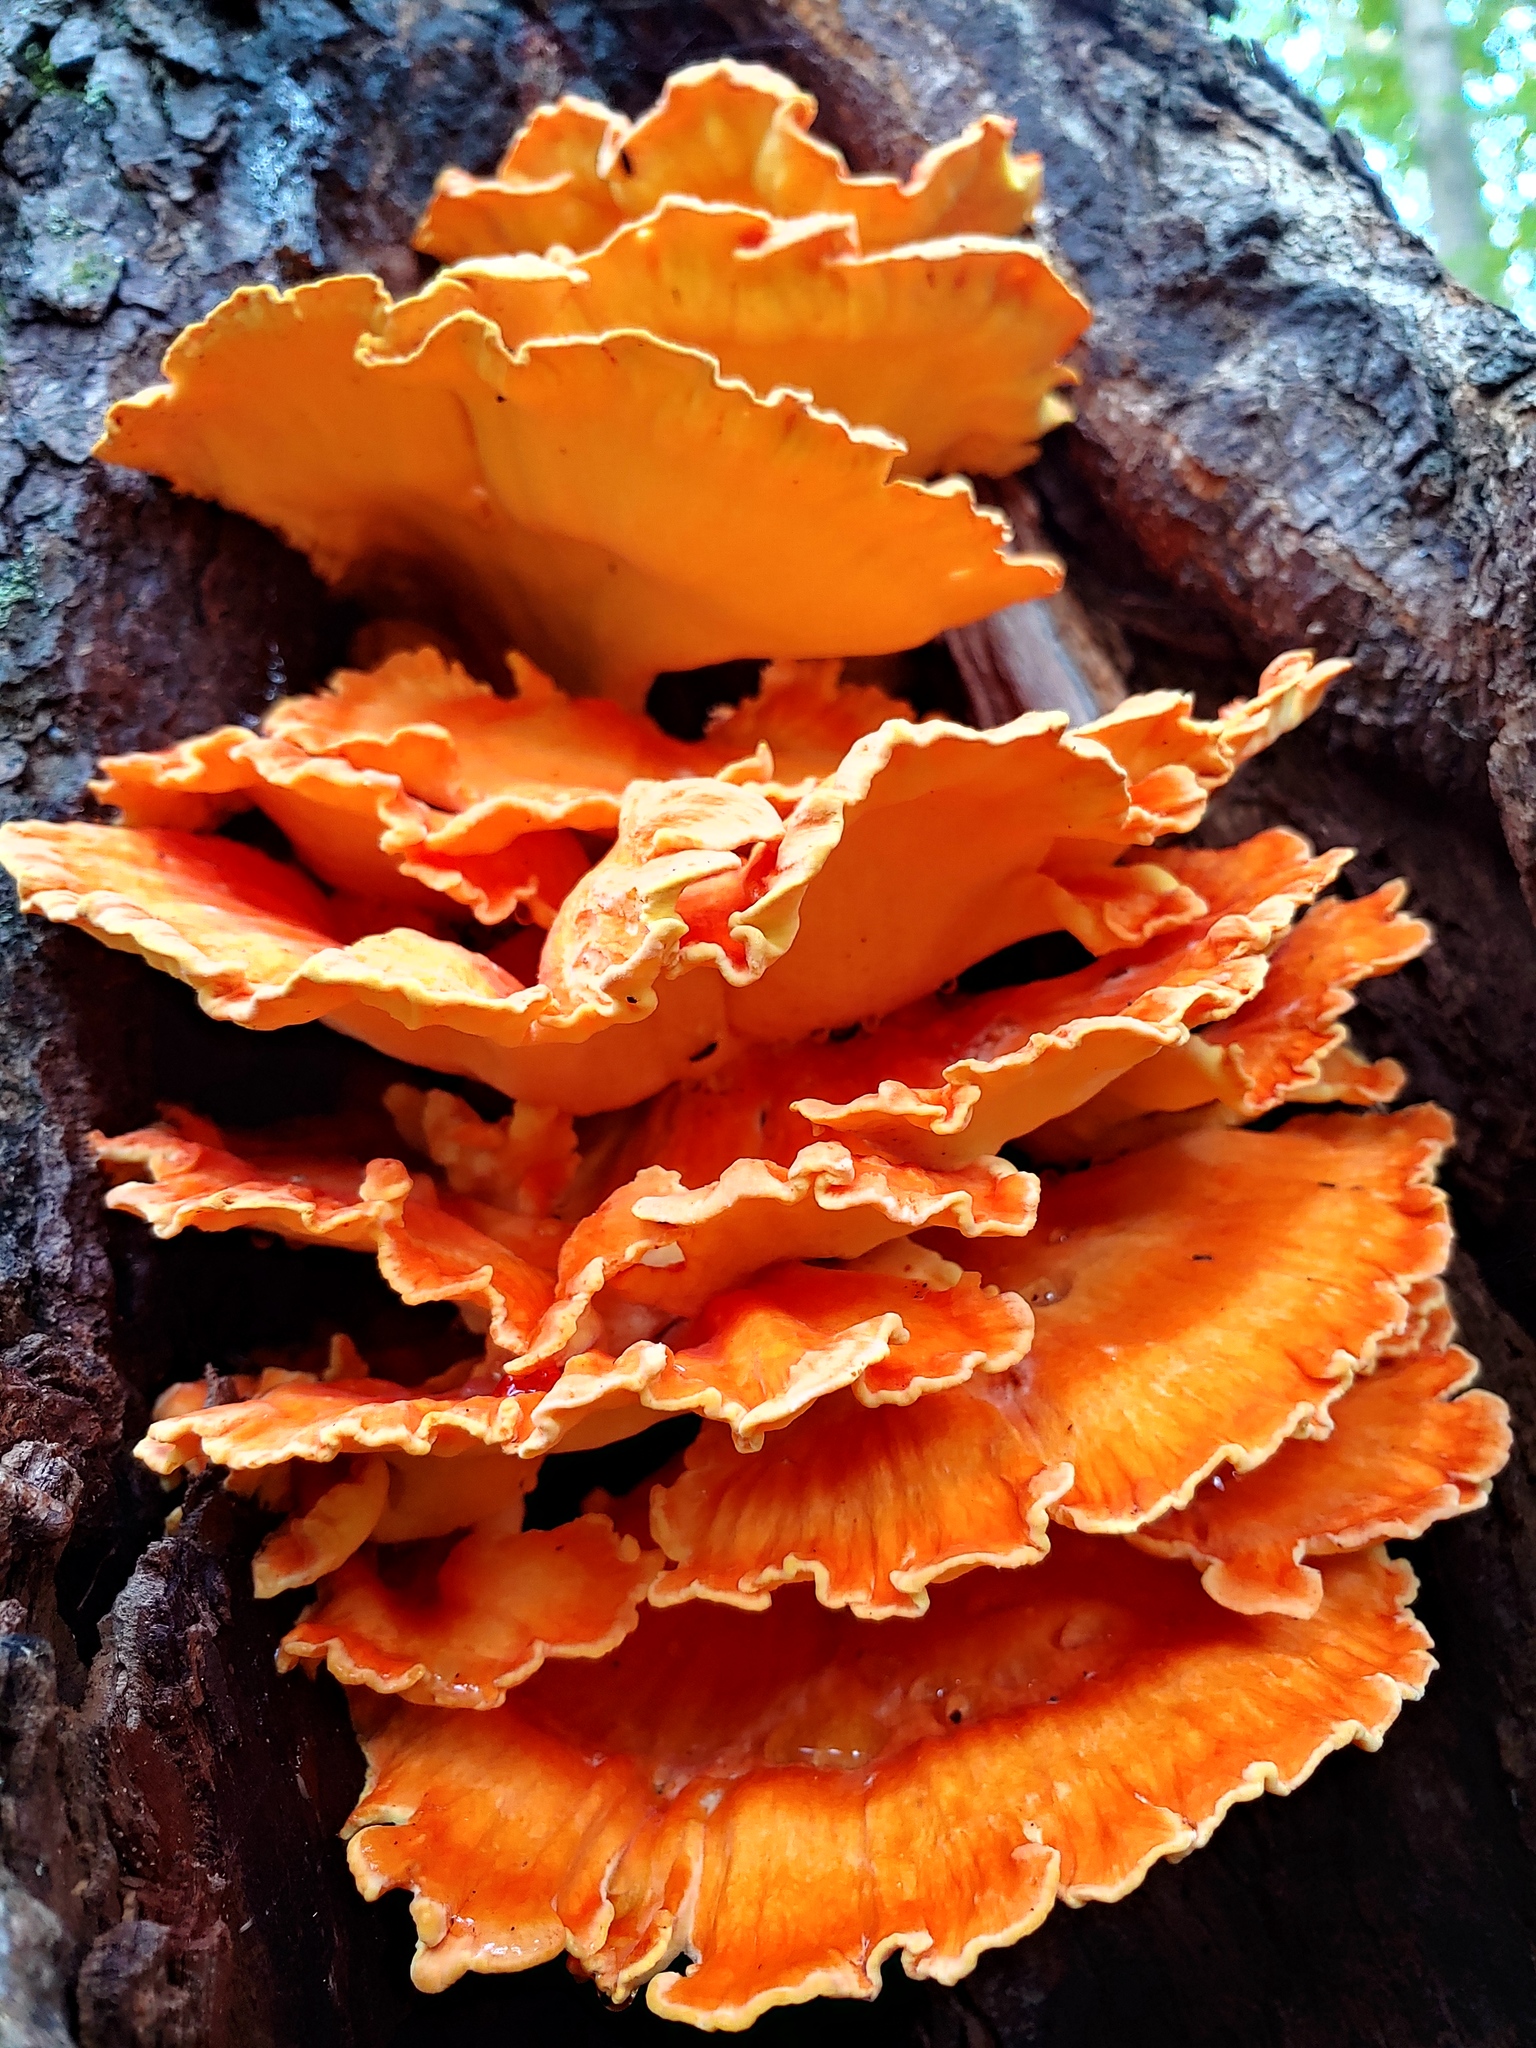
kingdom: Fungi
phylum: Basidiomycota
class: Agaricomycetes
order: Polyporales
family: Laetiporaceae
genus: Laetiporus
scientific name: Laetiporus sulphureus
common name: Chicken of the woods
